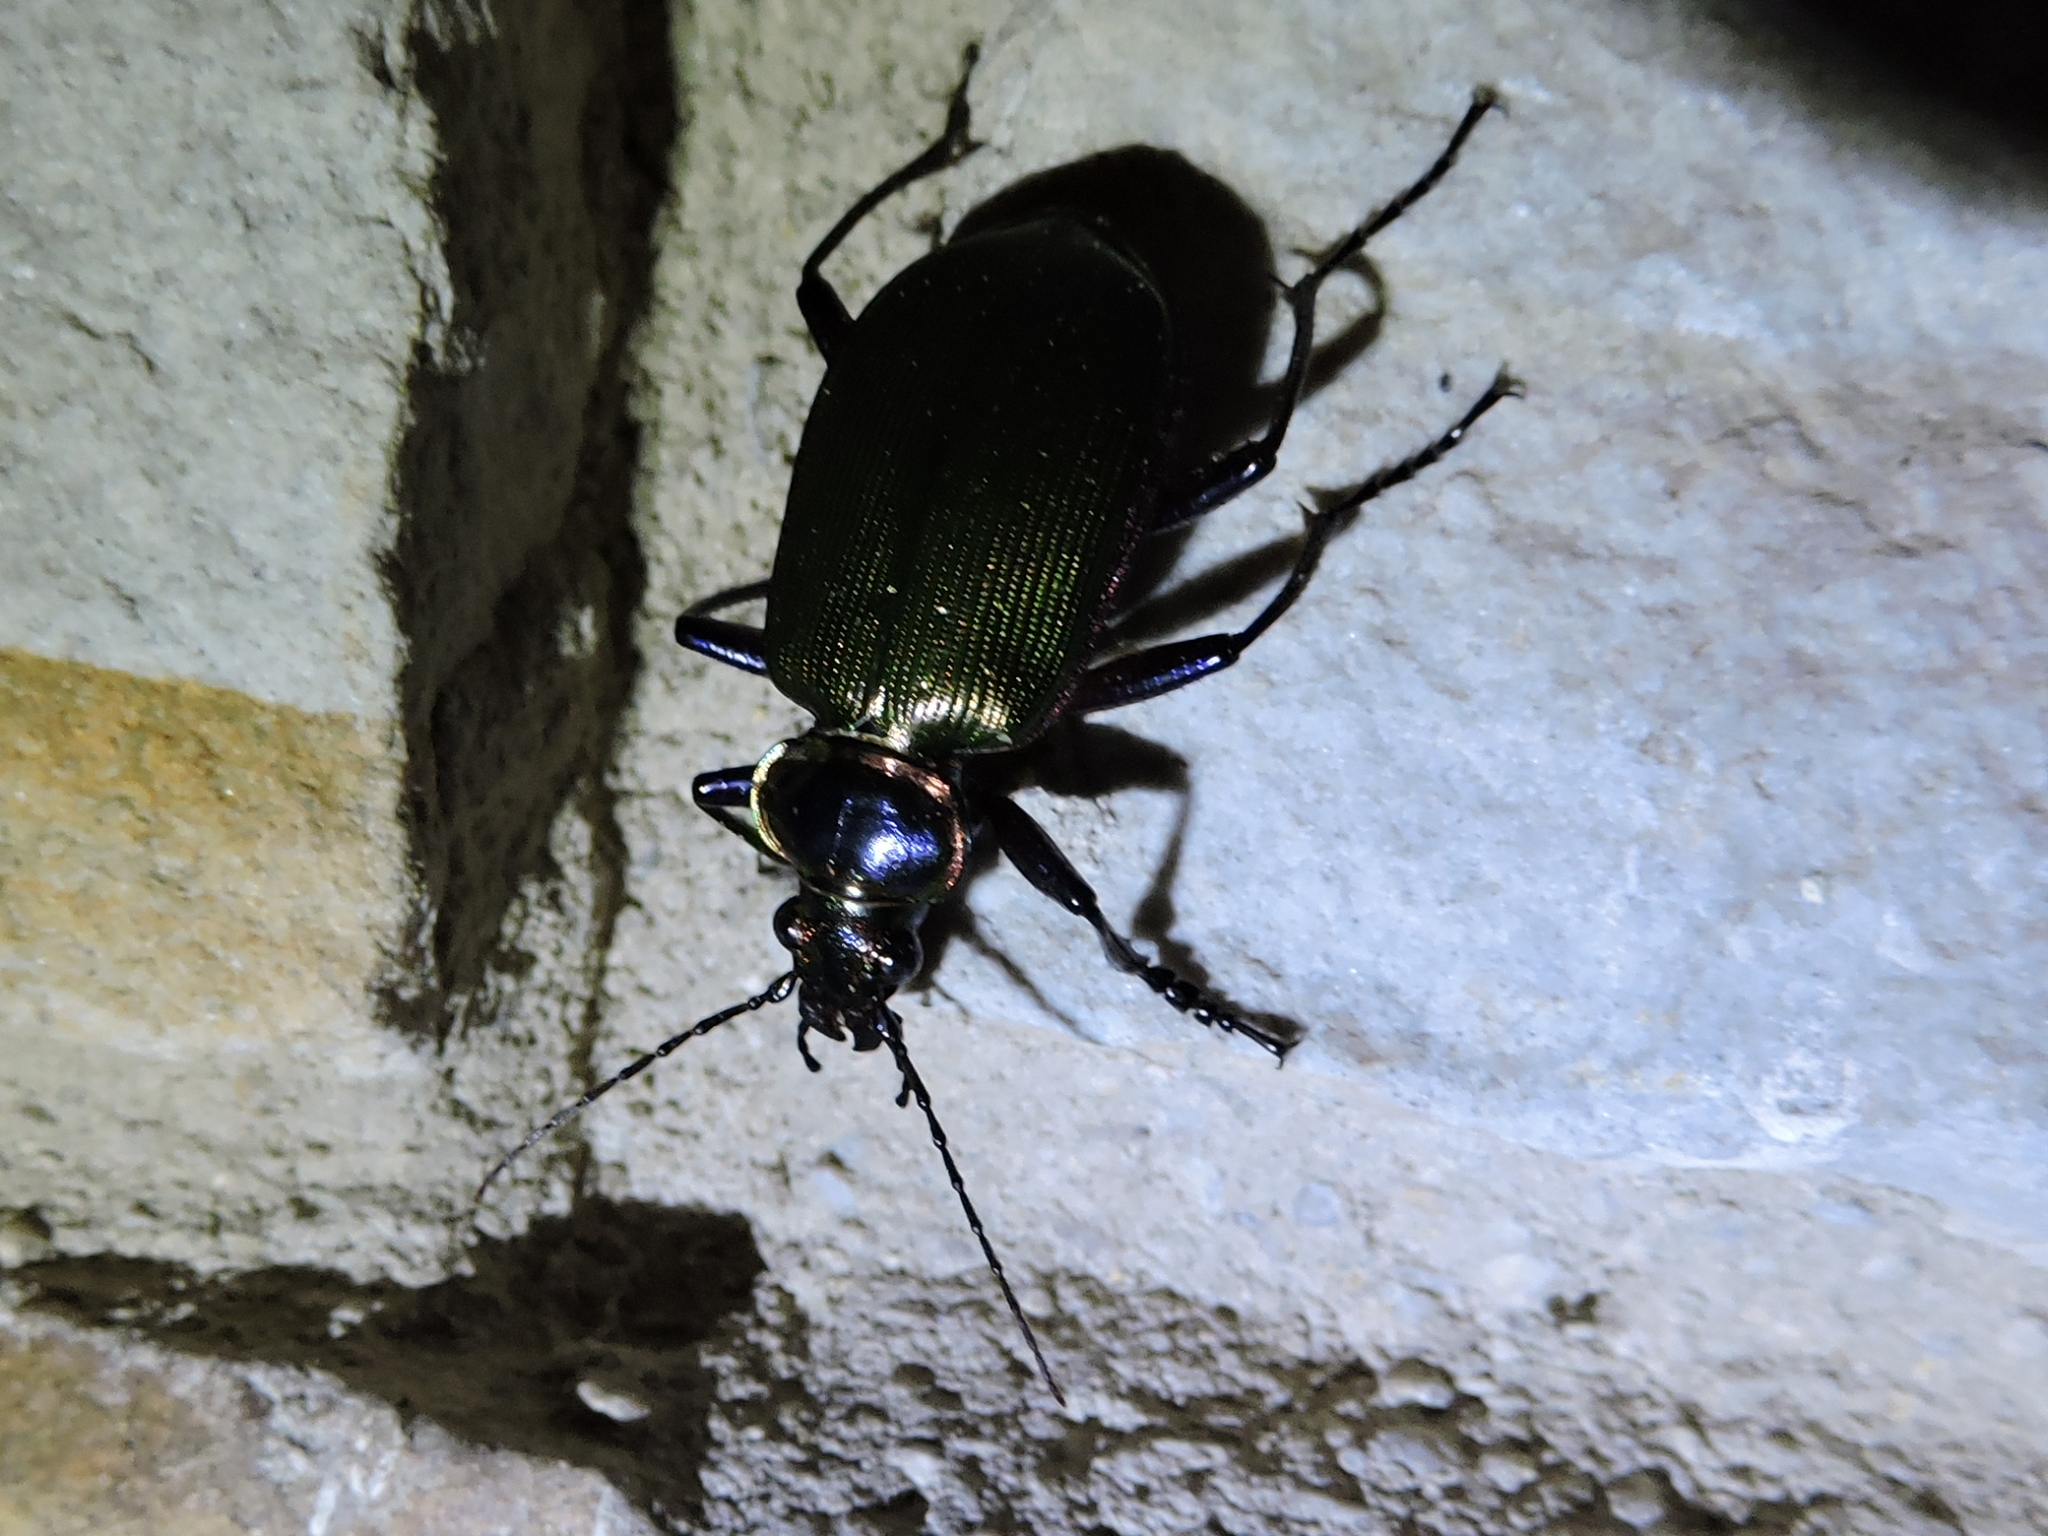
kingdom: Animalia
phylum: Arthropoda
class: Insecta
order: Coleoptera
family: Carabidae
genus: Calosoma
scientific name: Calosoma scrutator
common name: Fiery searcher beetle
